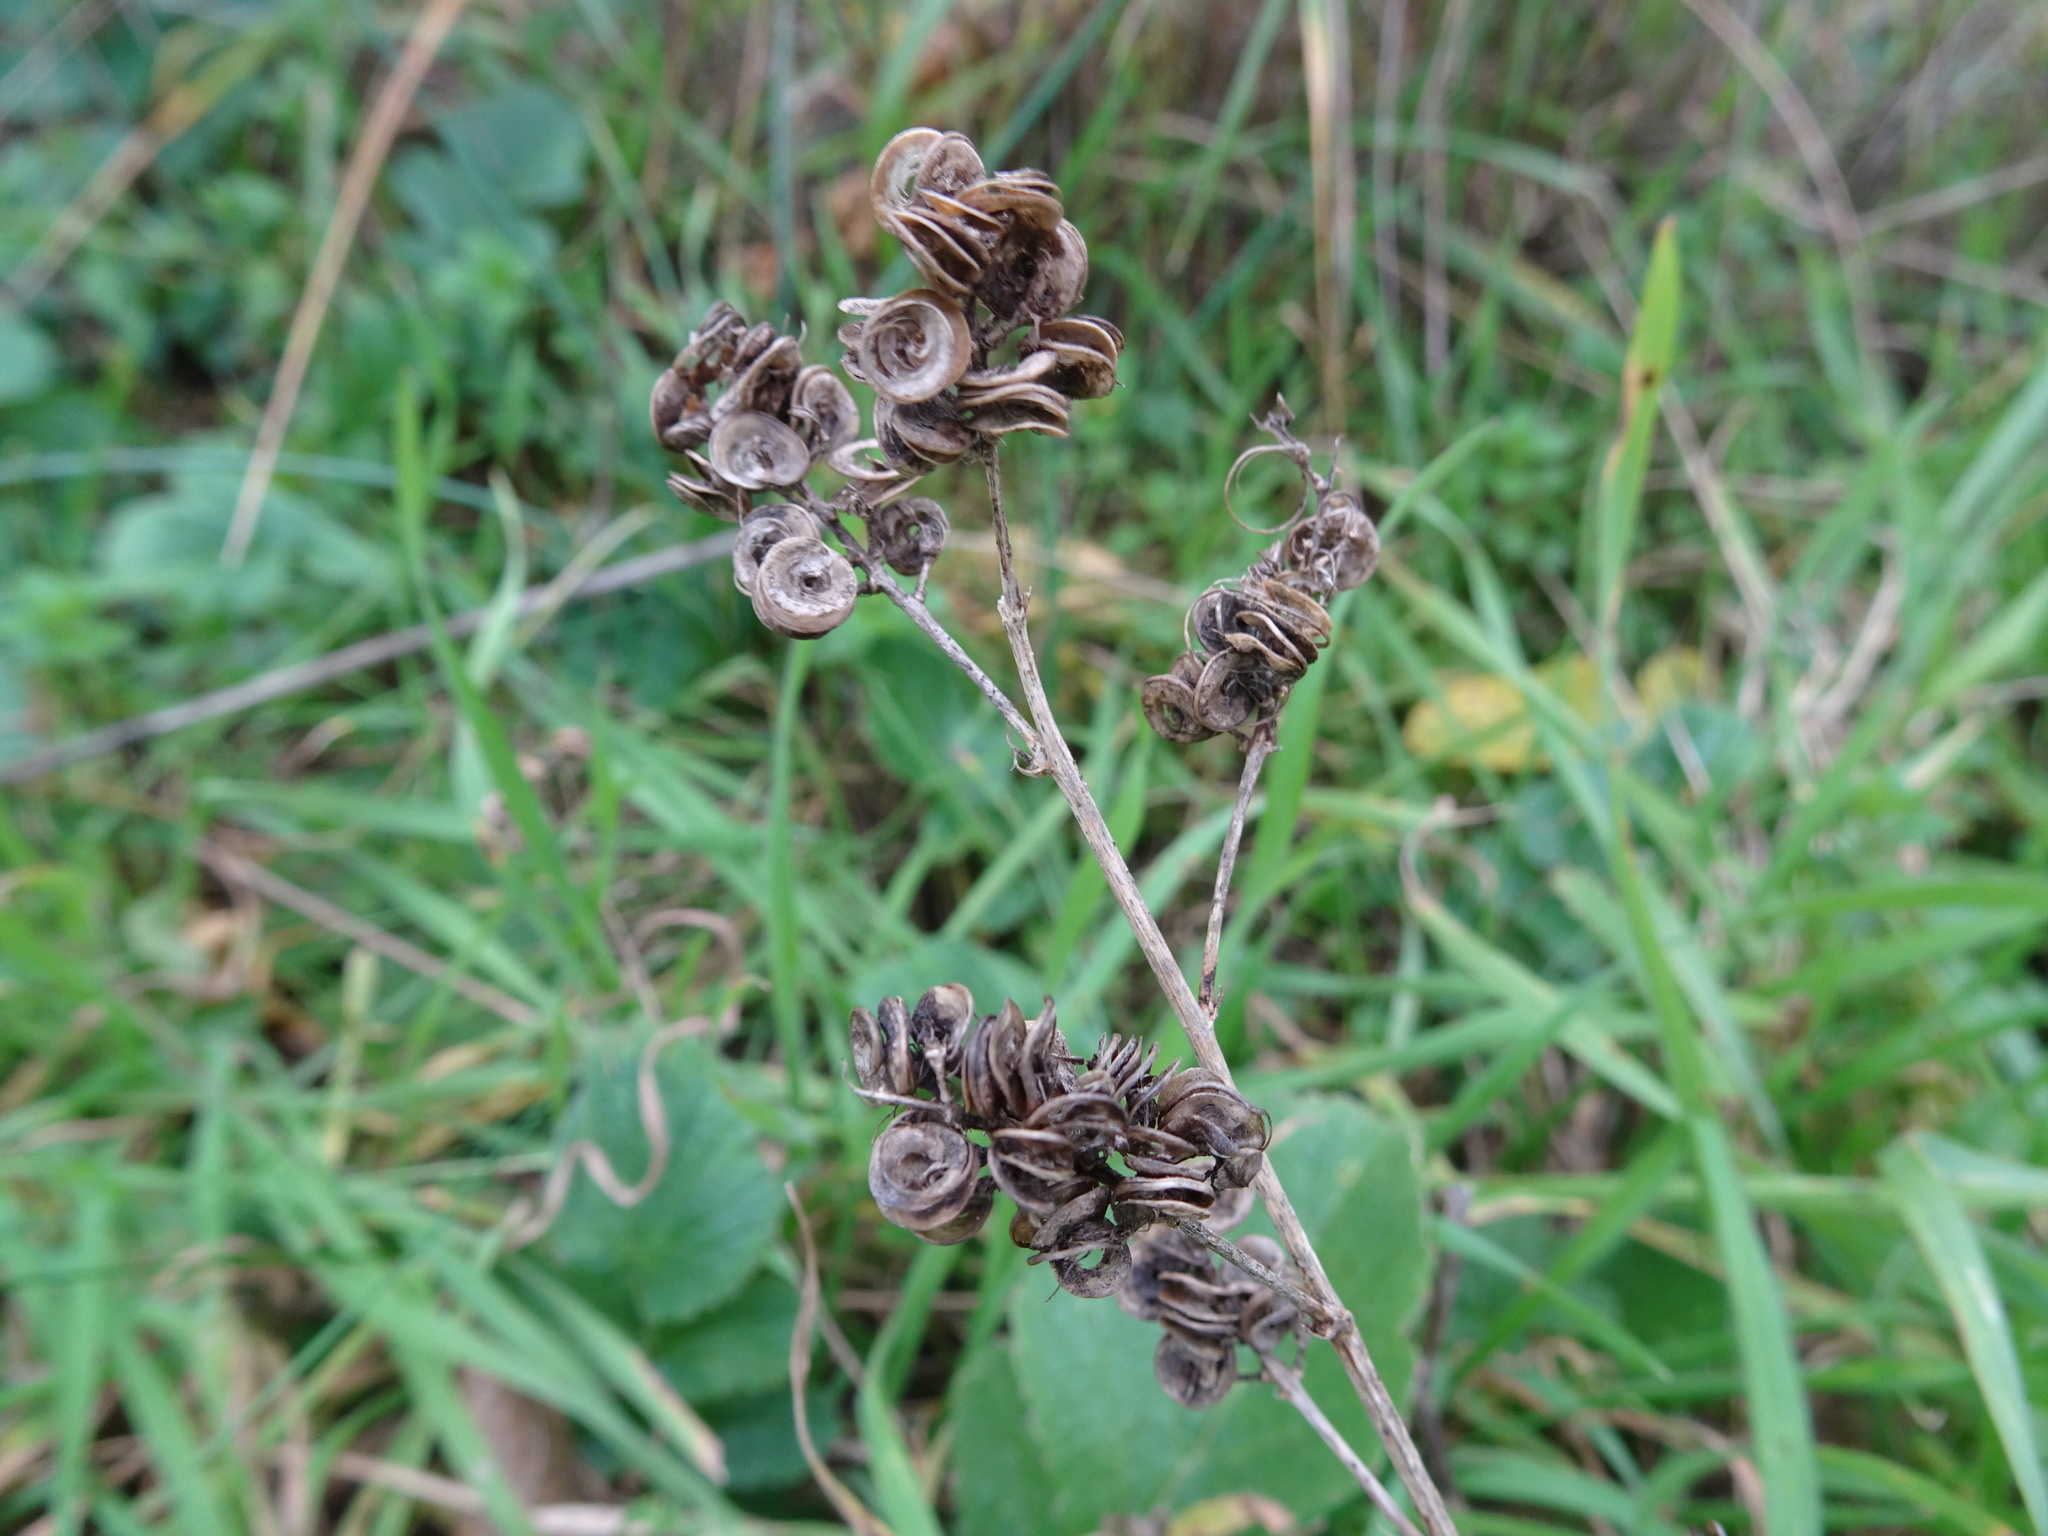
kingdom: Plantae
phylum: Tracheophyta
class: Magnoliopsida
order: Fabales
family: Fabaceae
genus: Medicago
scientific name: Medicago sativa
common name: Alfalfa
